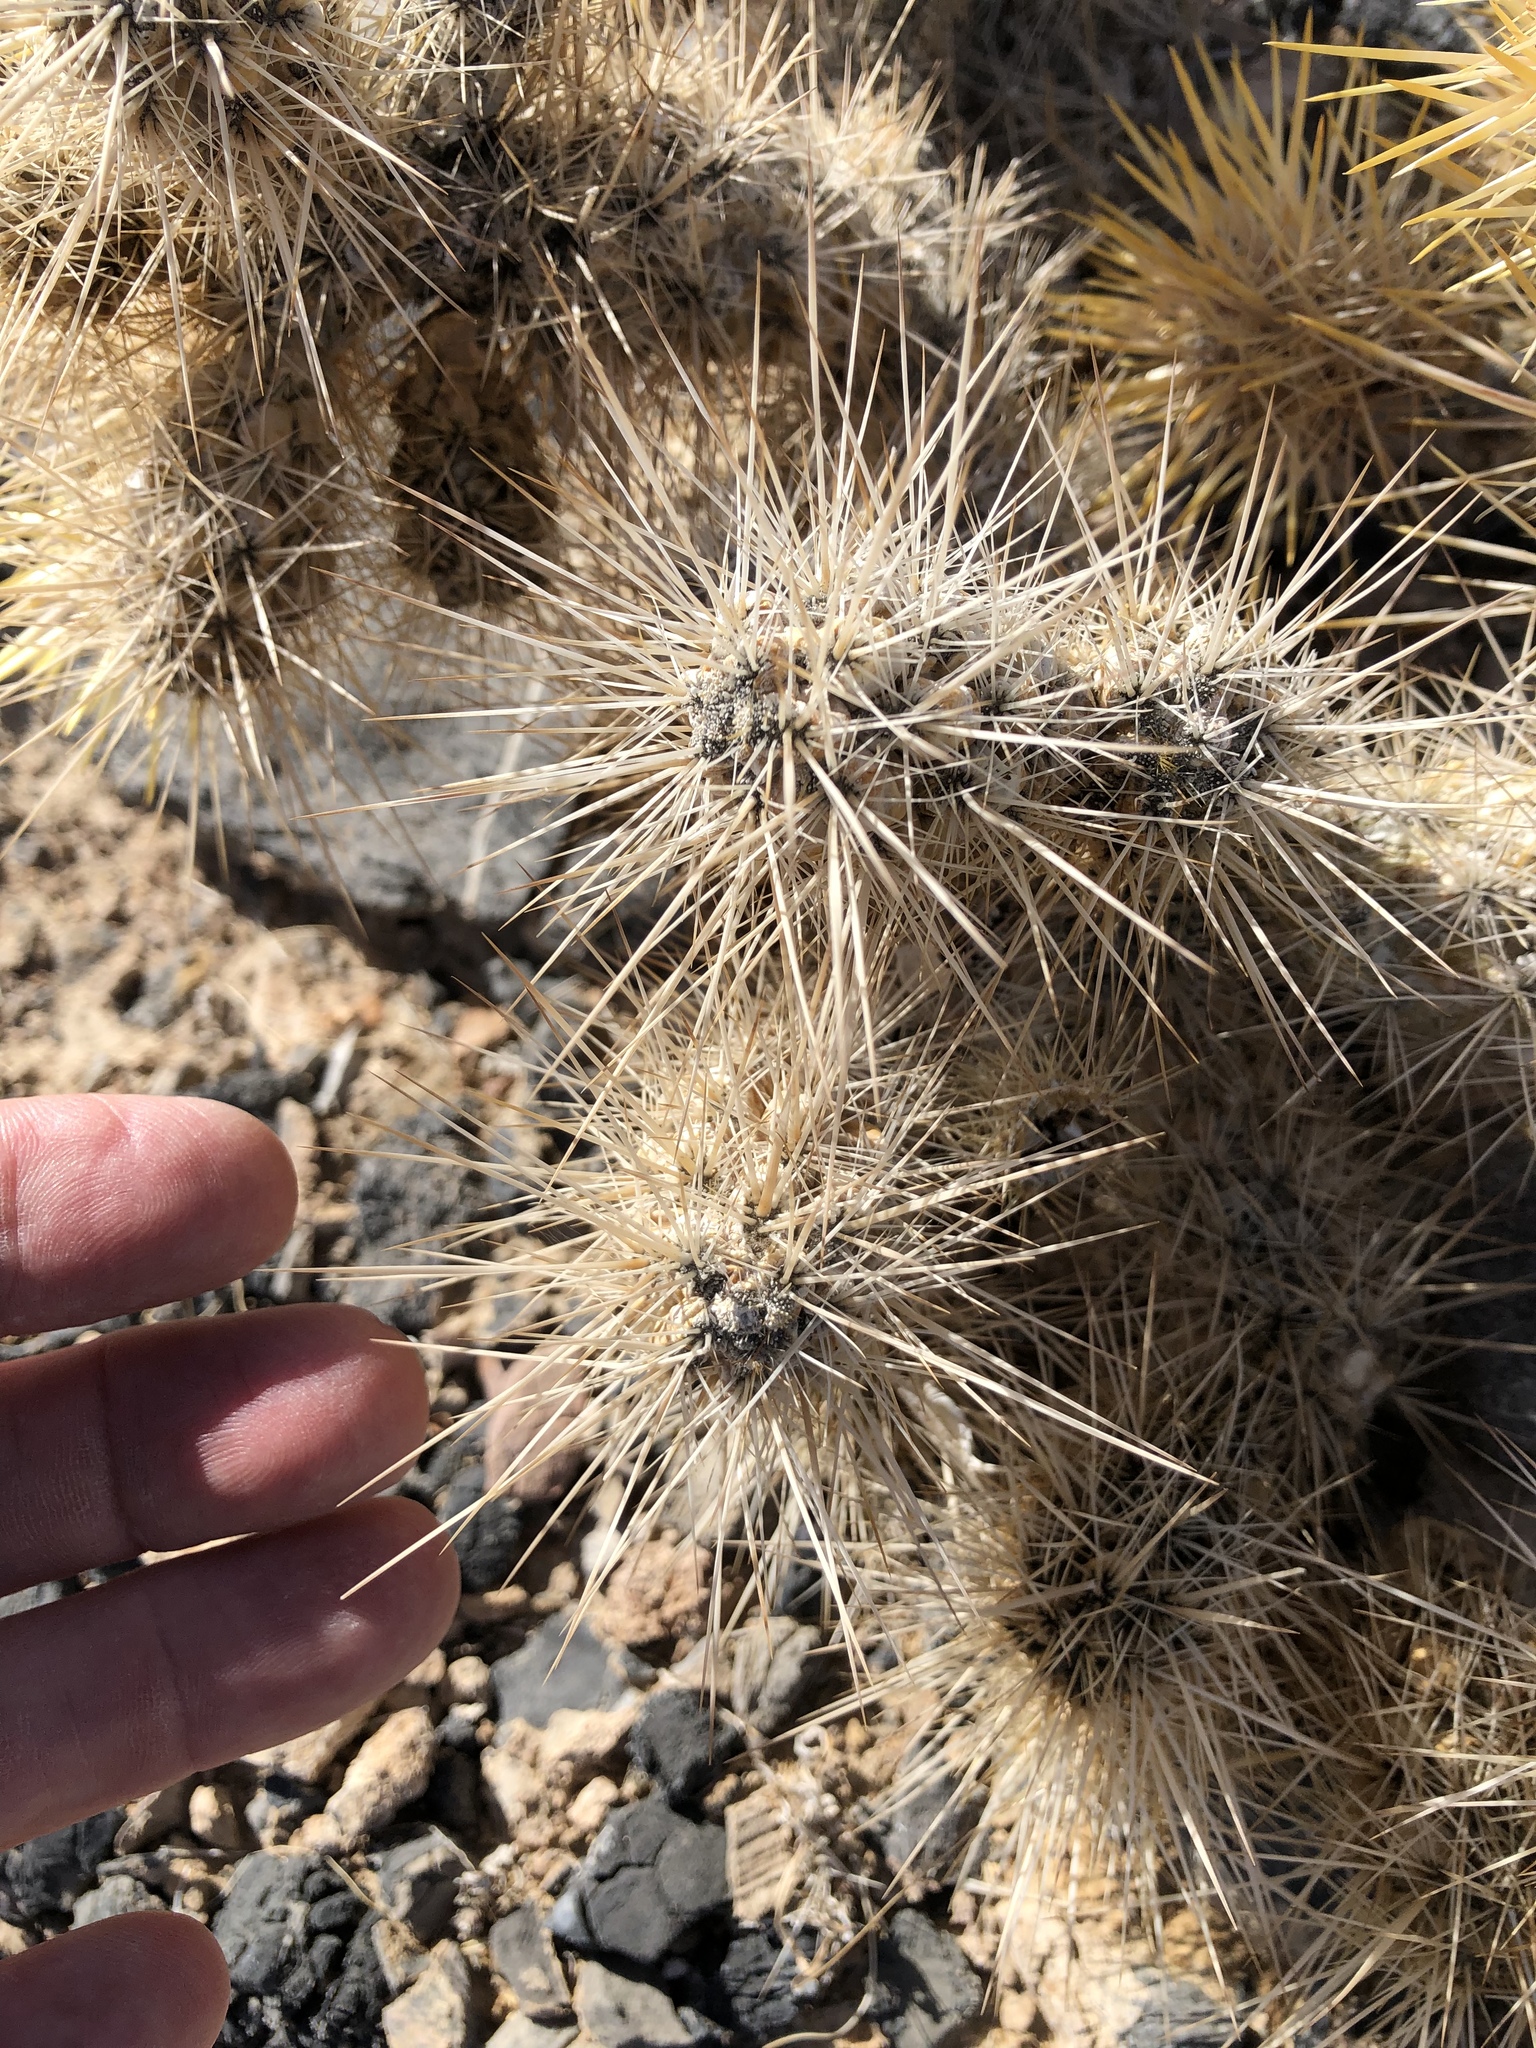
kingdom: Plantae
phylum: Tracheophyta
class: Magnoliopsida
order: Caryophyllales
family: Cactaceae
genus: Cylindropuntia
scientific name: Cylindropuntia echinocarpa
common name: Ground cholla
